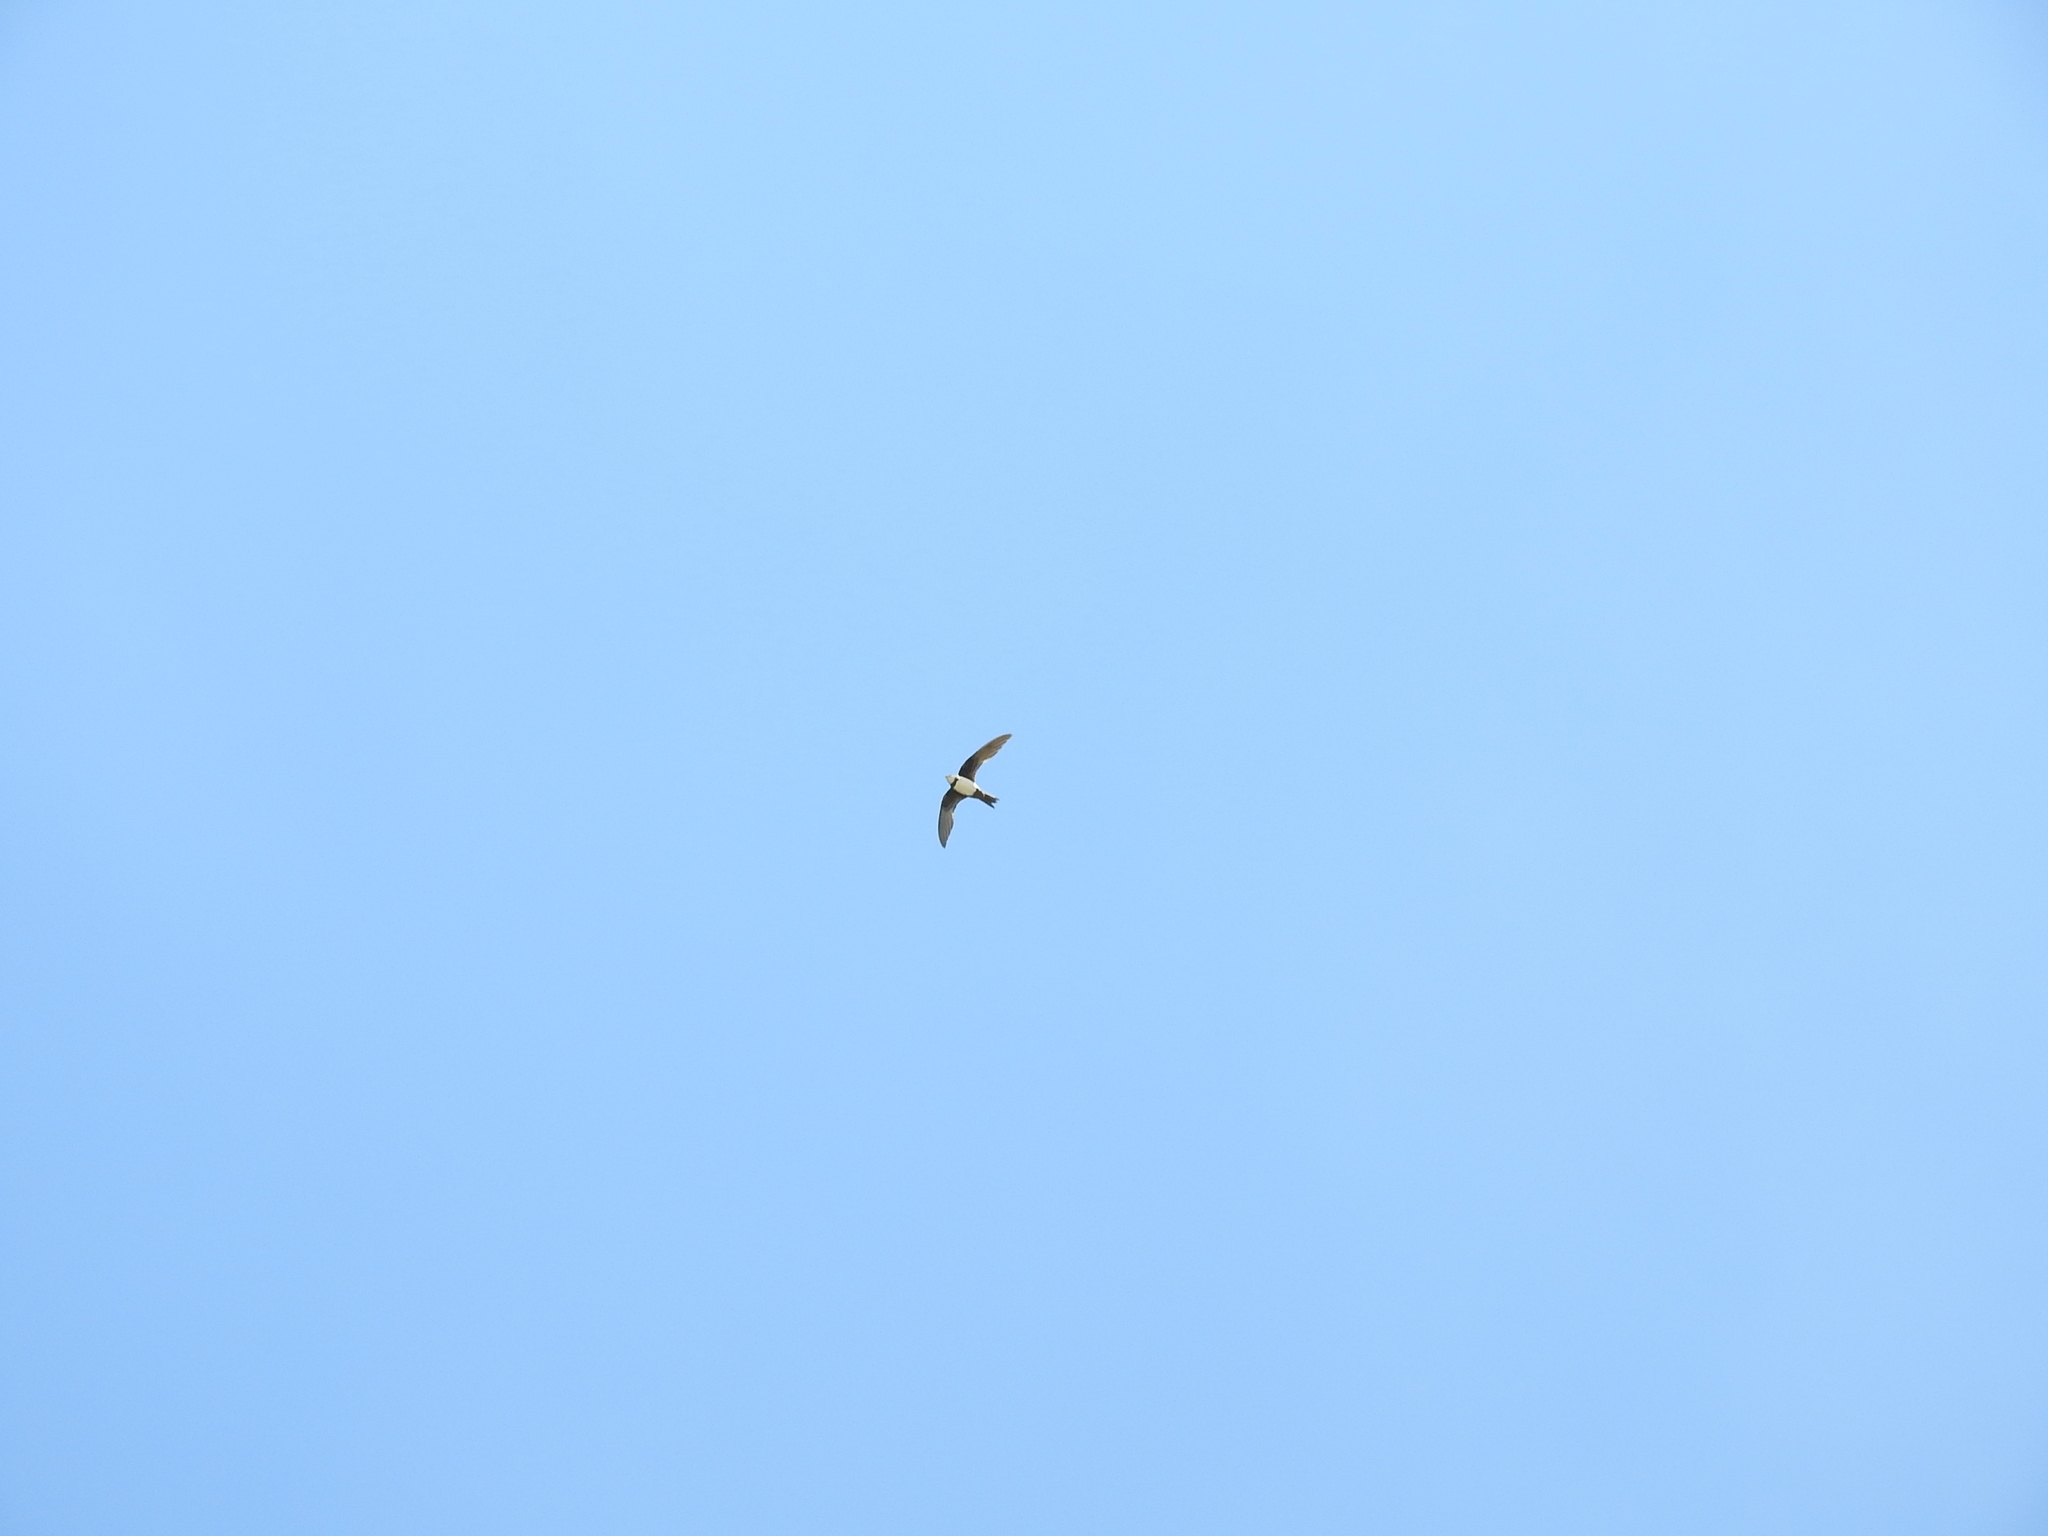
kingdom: Animalia
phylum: Chordata
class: Aves
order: Apodiformes
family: Apodidae
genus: Tachymarptis
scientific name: Tachymarptis melba
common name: Alpine swift
